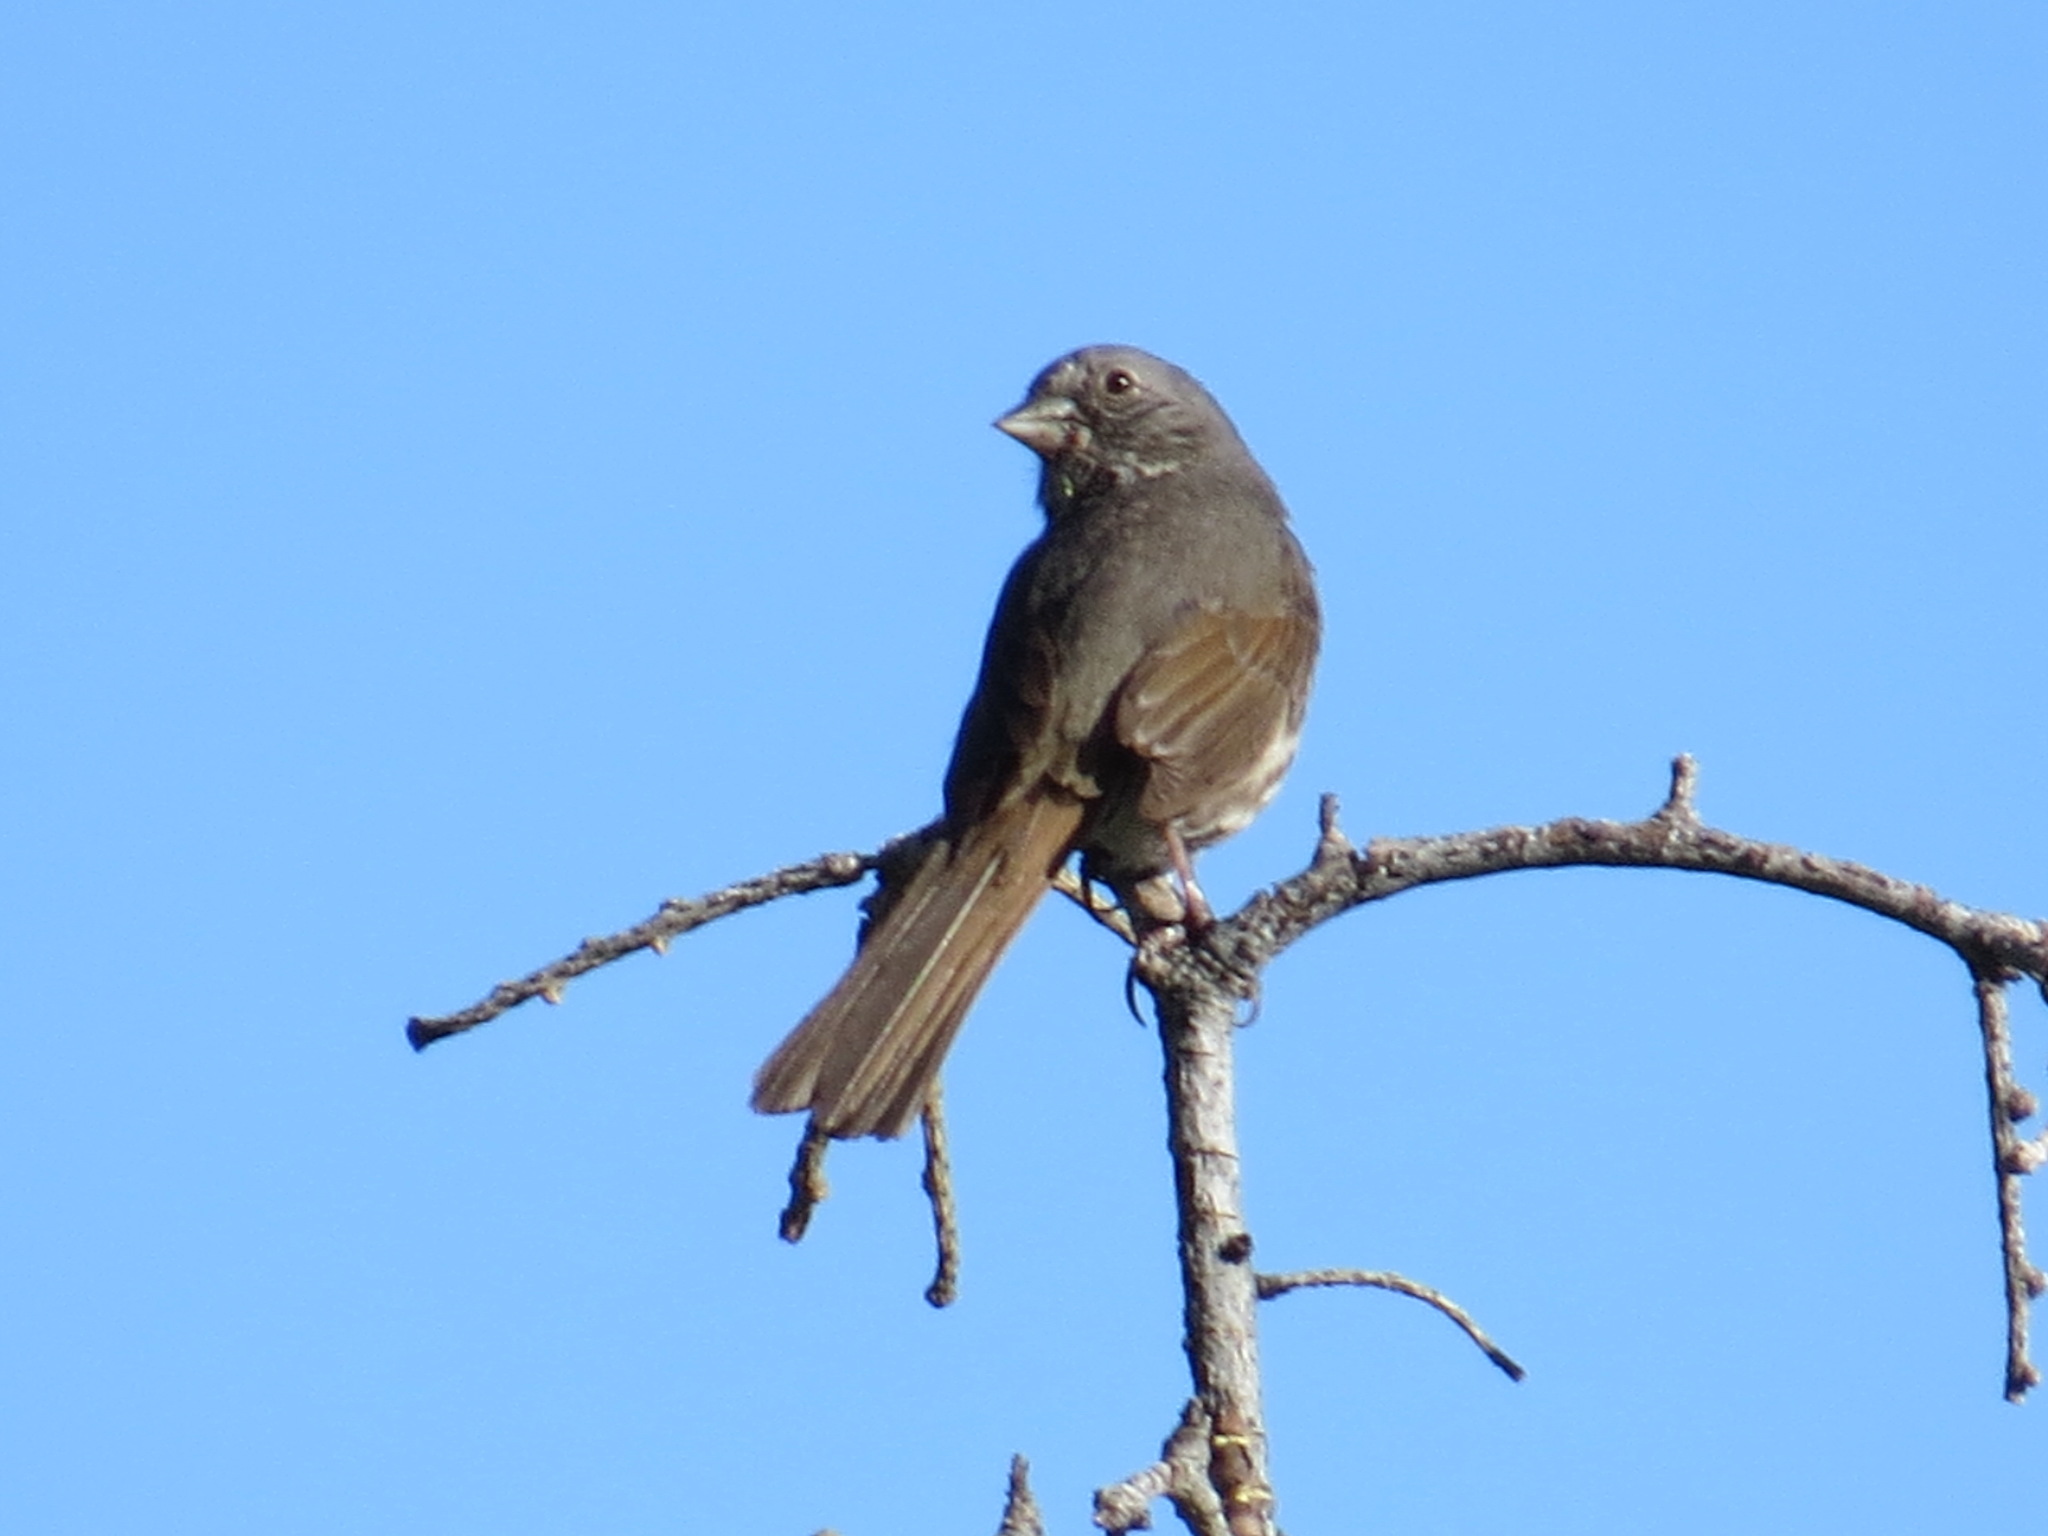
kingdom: Animalia
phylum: Chordata
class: Aves
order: Passeriformes
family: Passerellidae
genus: Passerella
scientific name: Passerella megarhyncha
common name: Thick-billed fox sparrow
